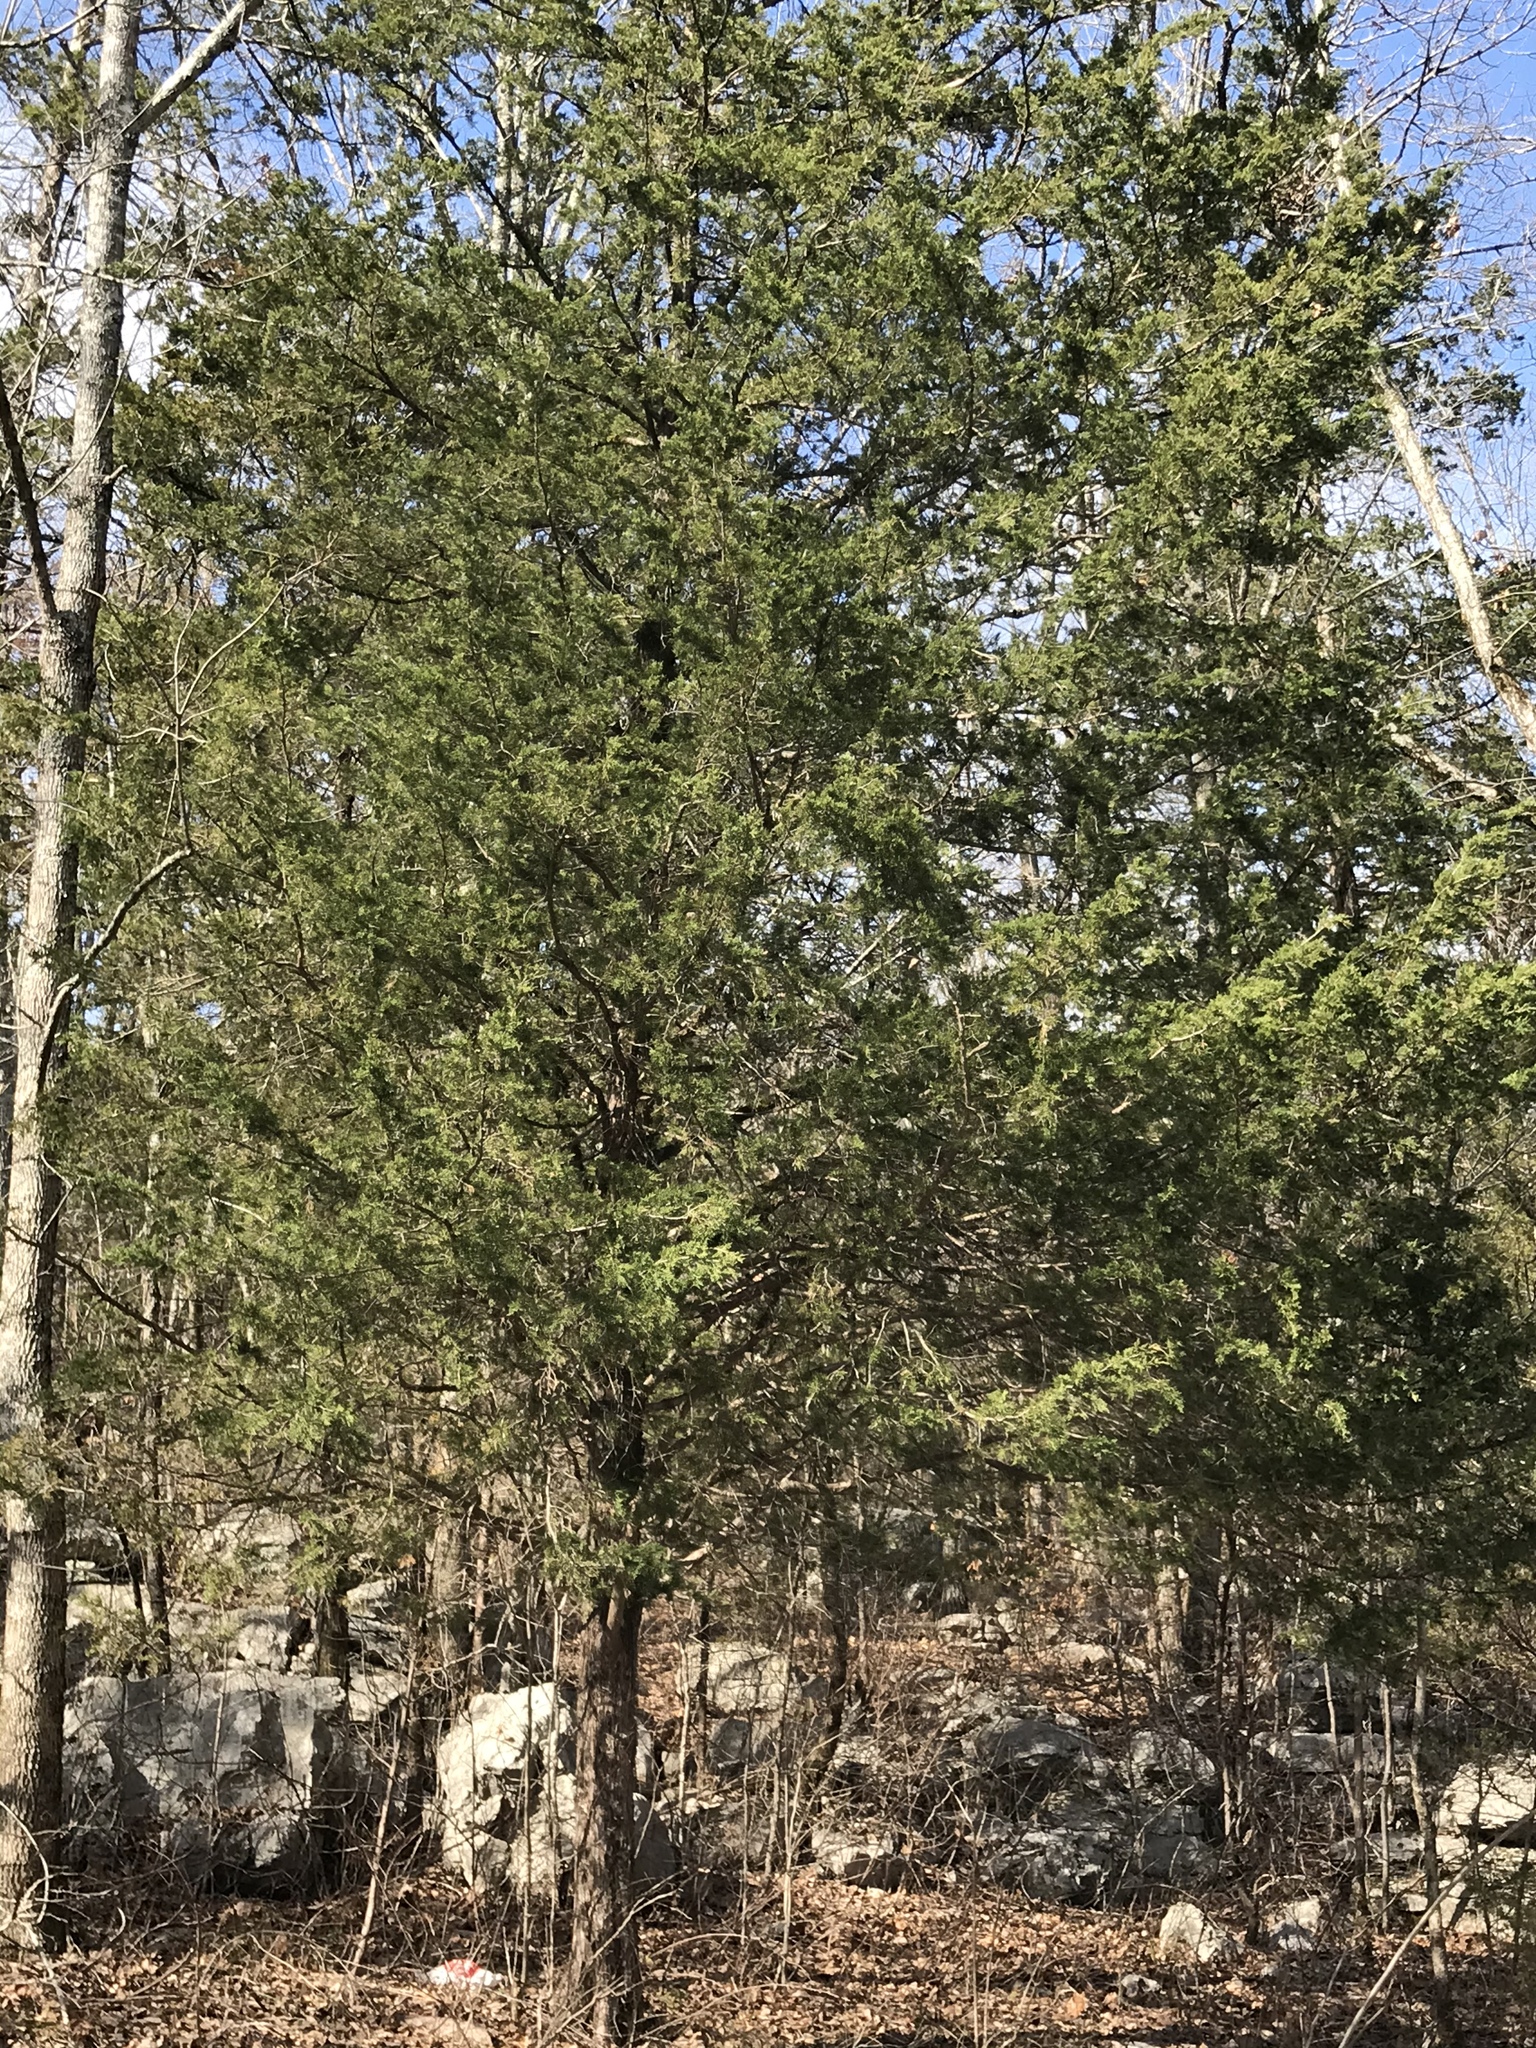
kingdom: Plantae
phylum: Tracheophyta
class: Pinopsida
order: Pinales
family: Cupressaceae
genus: Juniperus
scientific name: Juniperus virginiana
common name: Red juniper
